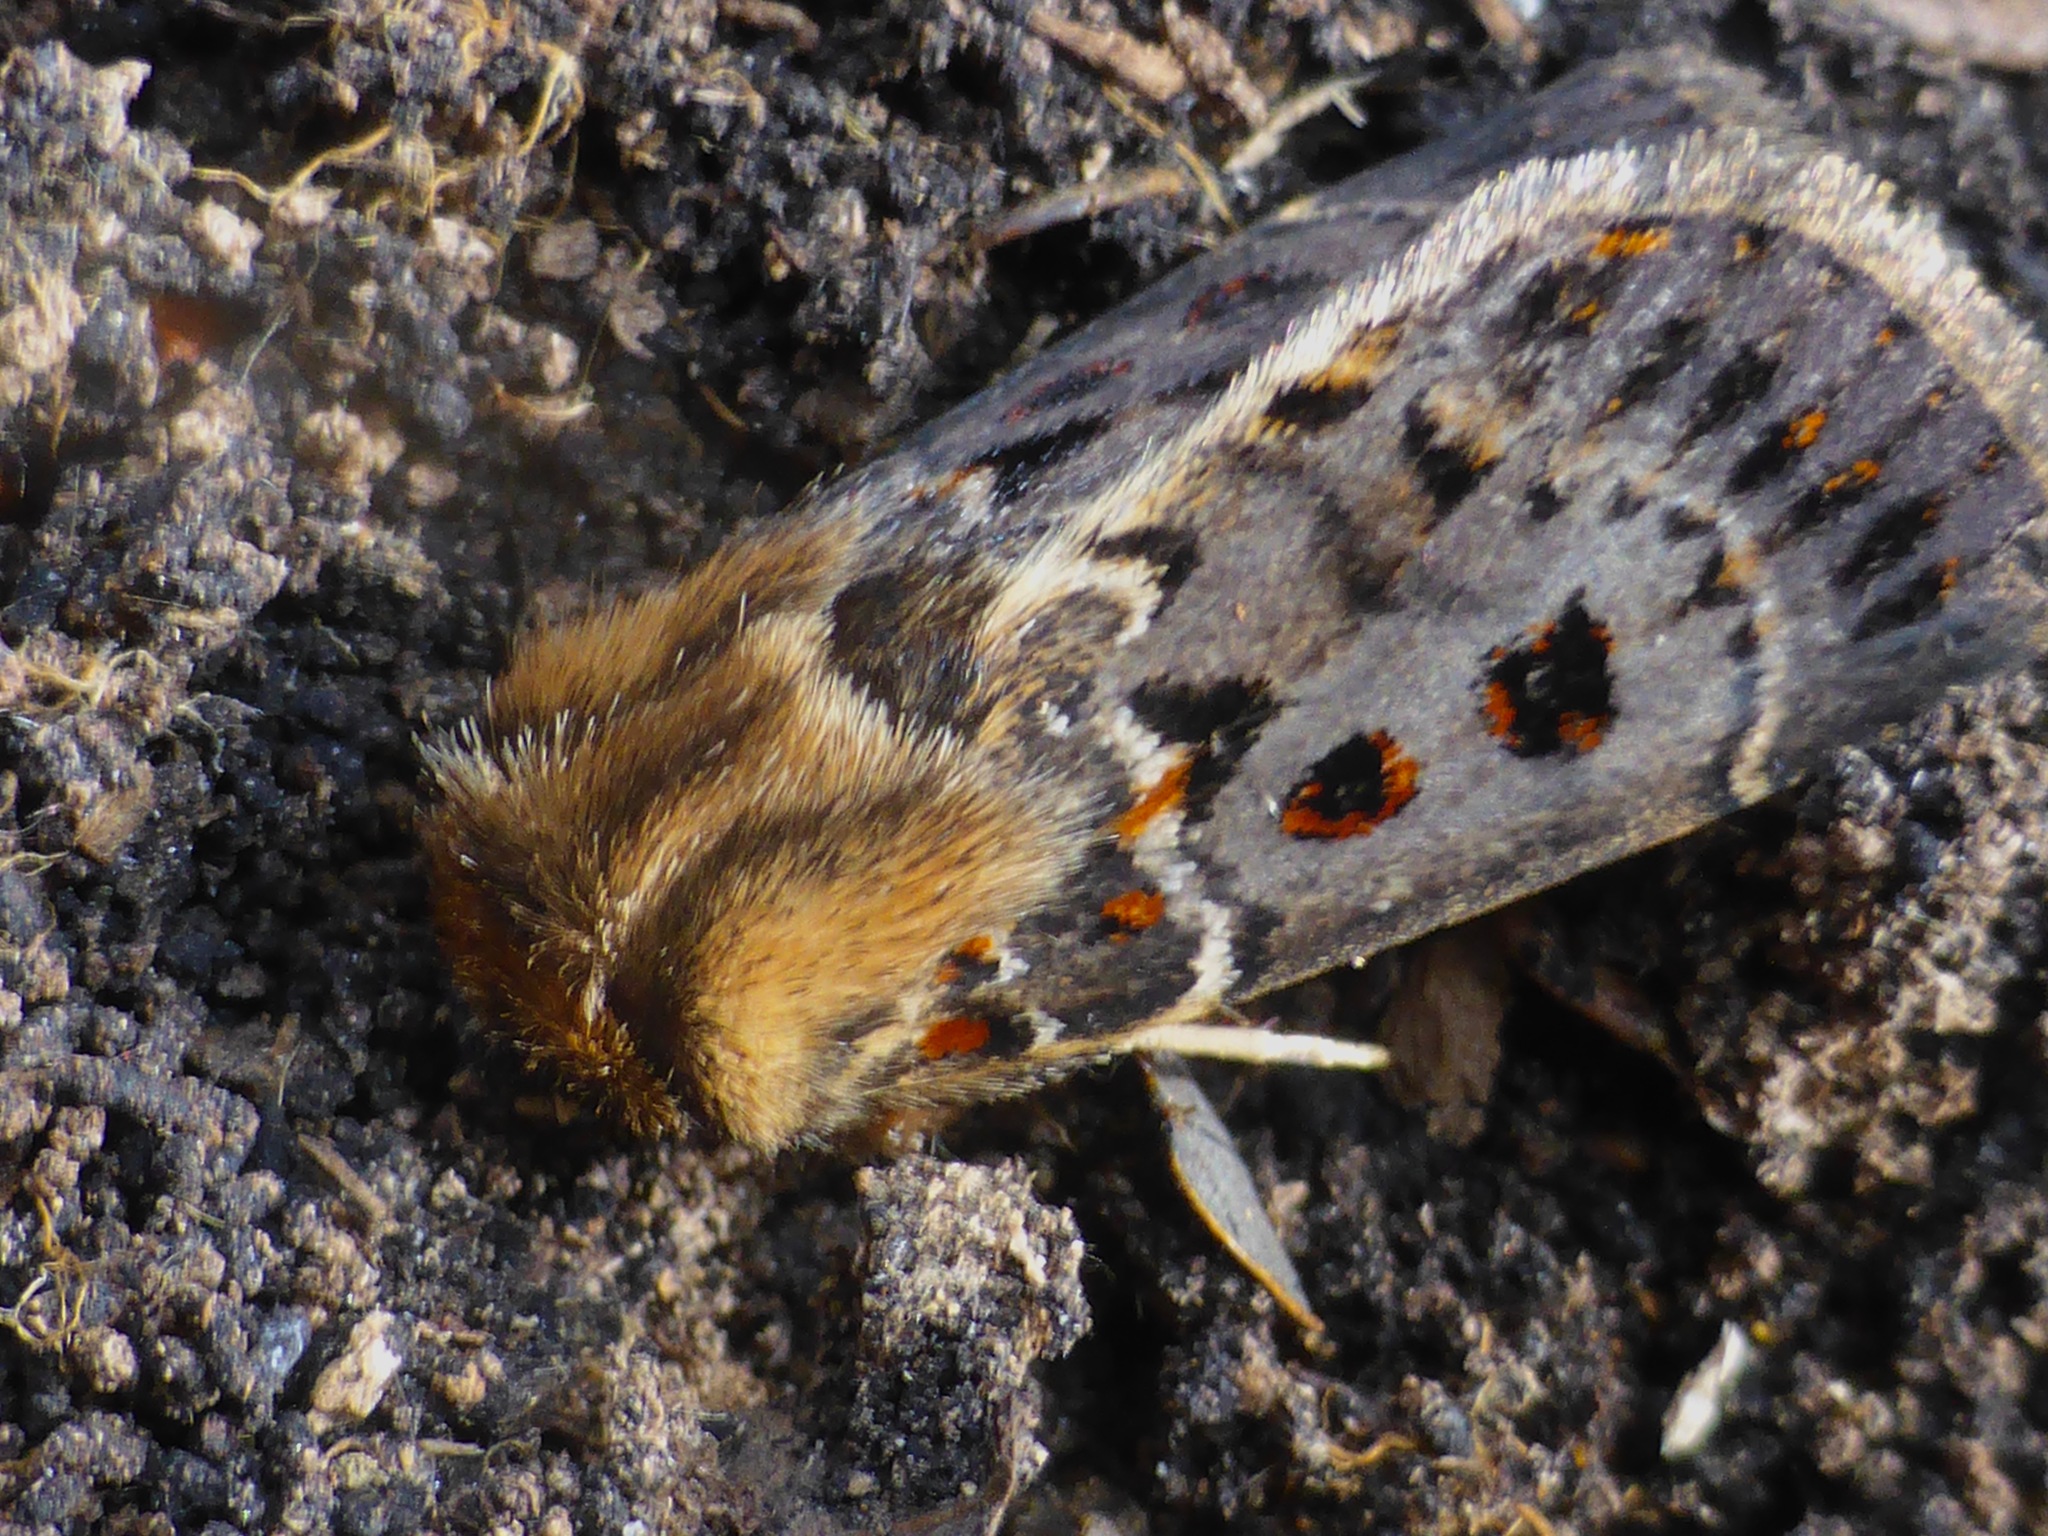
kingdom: Animalia
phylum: Arthropoda
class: Insecta
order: Lepidoptera
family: Noctuidae
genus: Proteuxoa
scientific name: Proteuxoa sanguinipuncta
